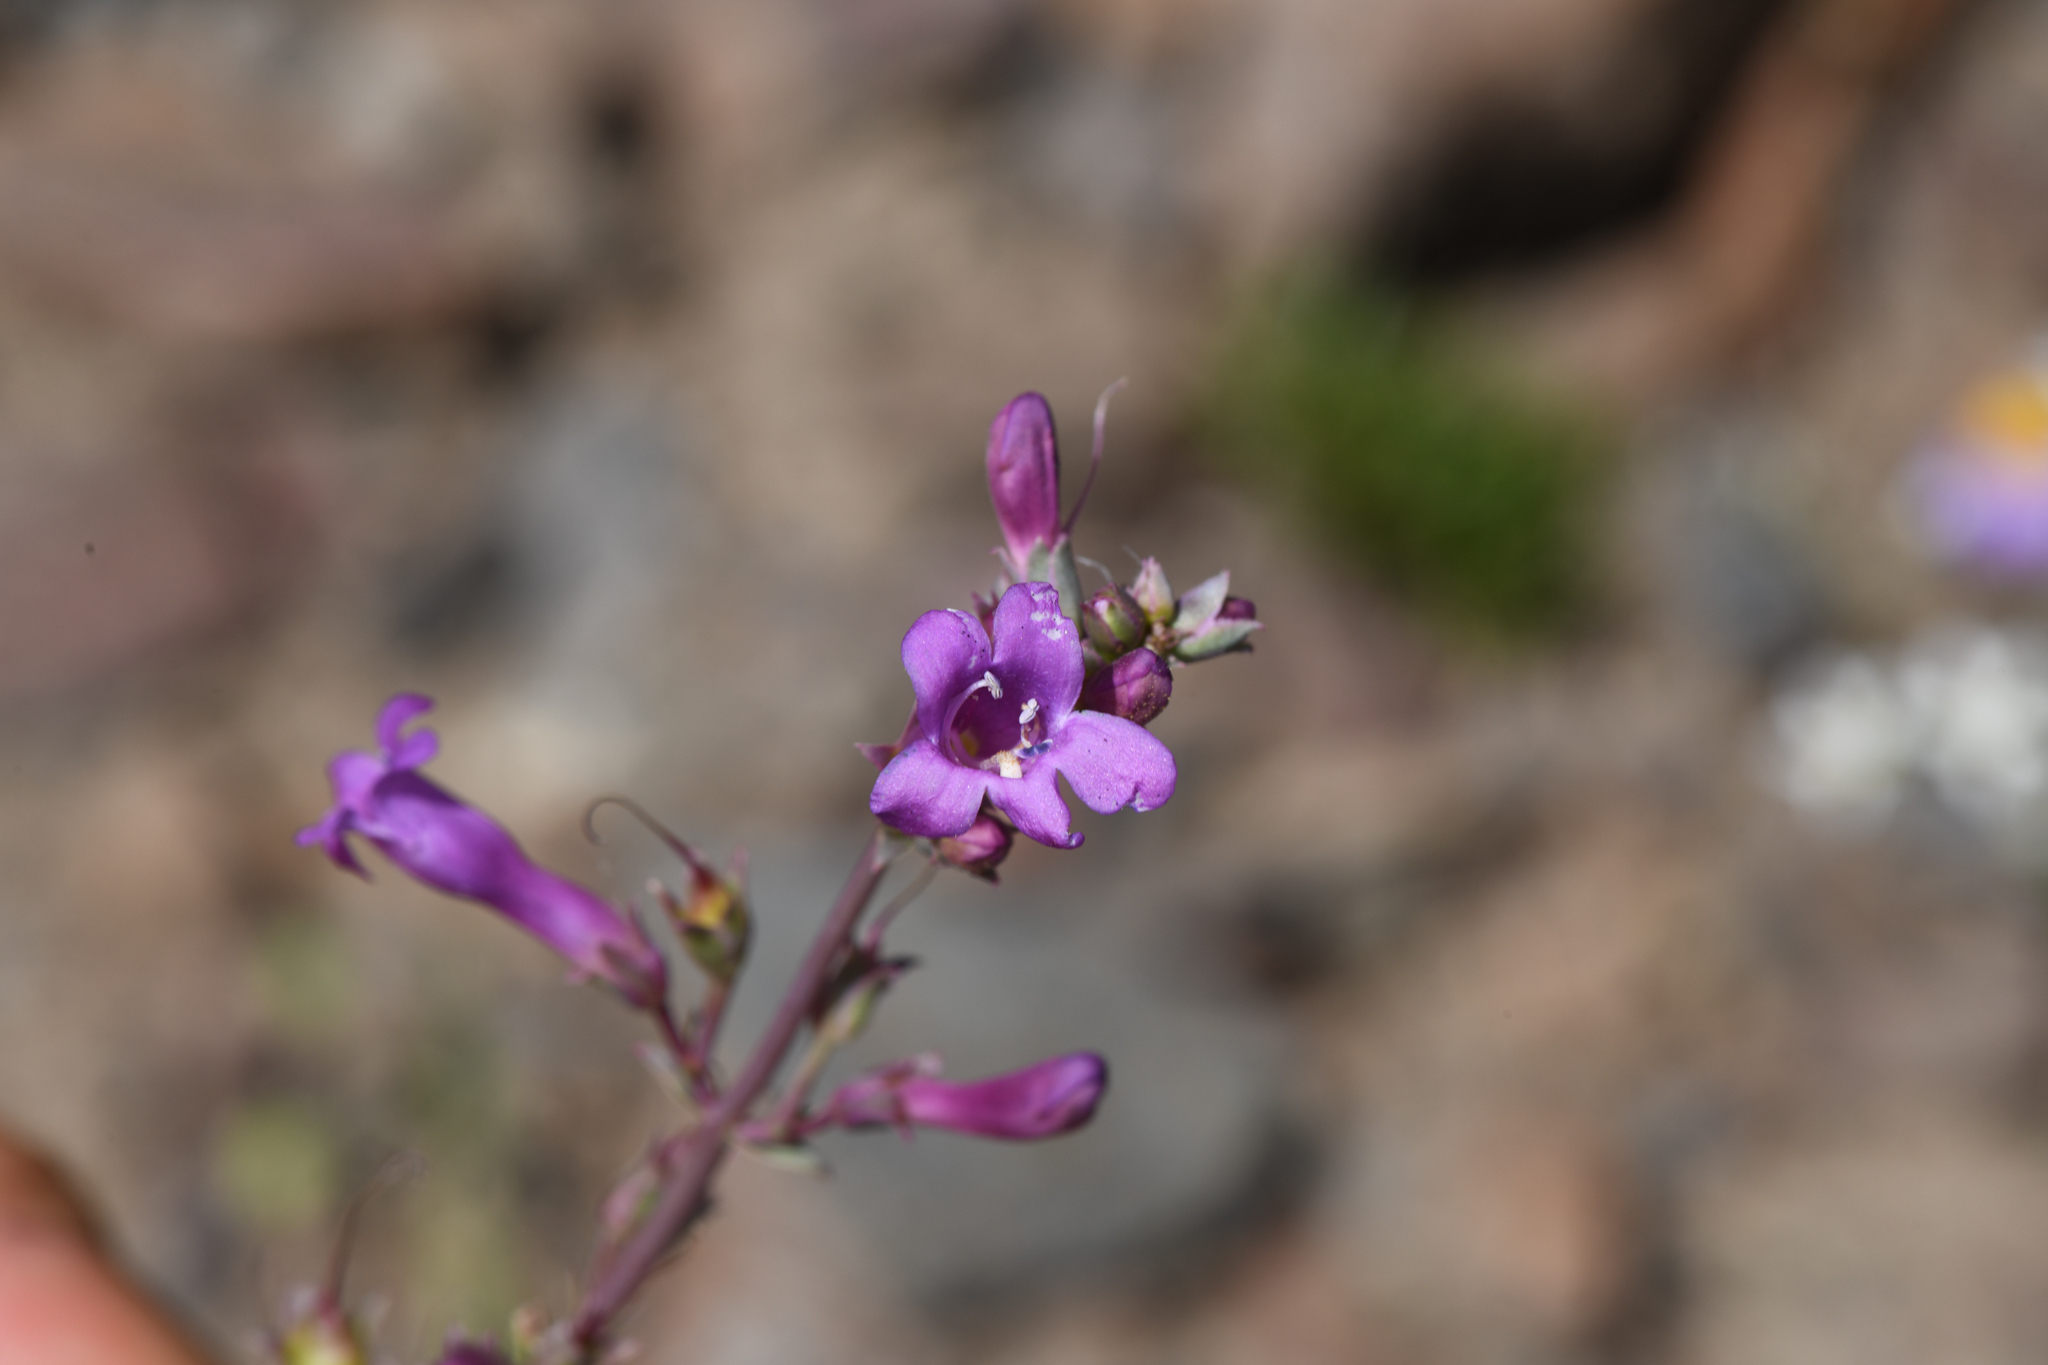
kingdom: Plantae
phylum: Tracheophyta
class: Magnoliopsida
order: Lamiales
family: Plantaginaceae
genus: Penstemon
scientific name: Penstemon patens
